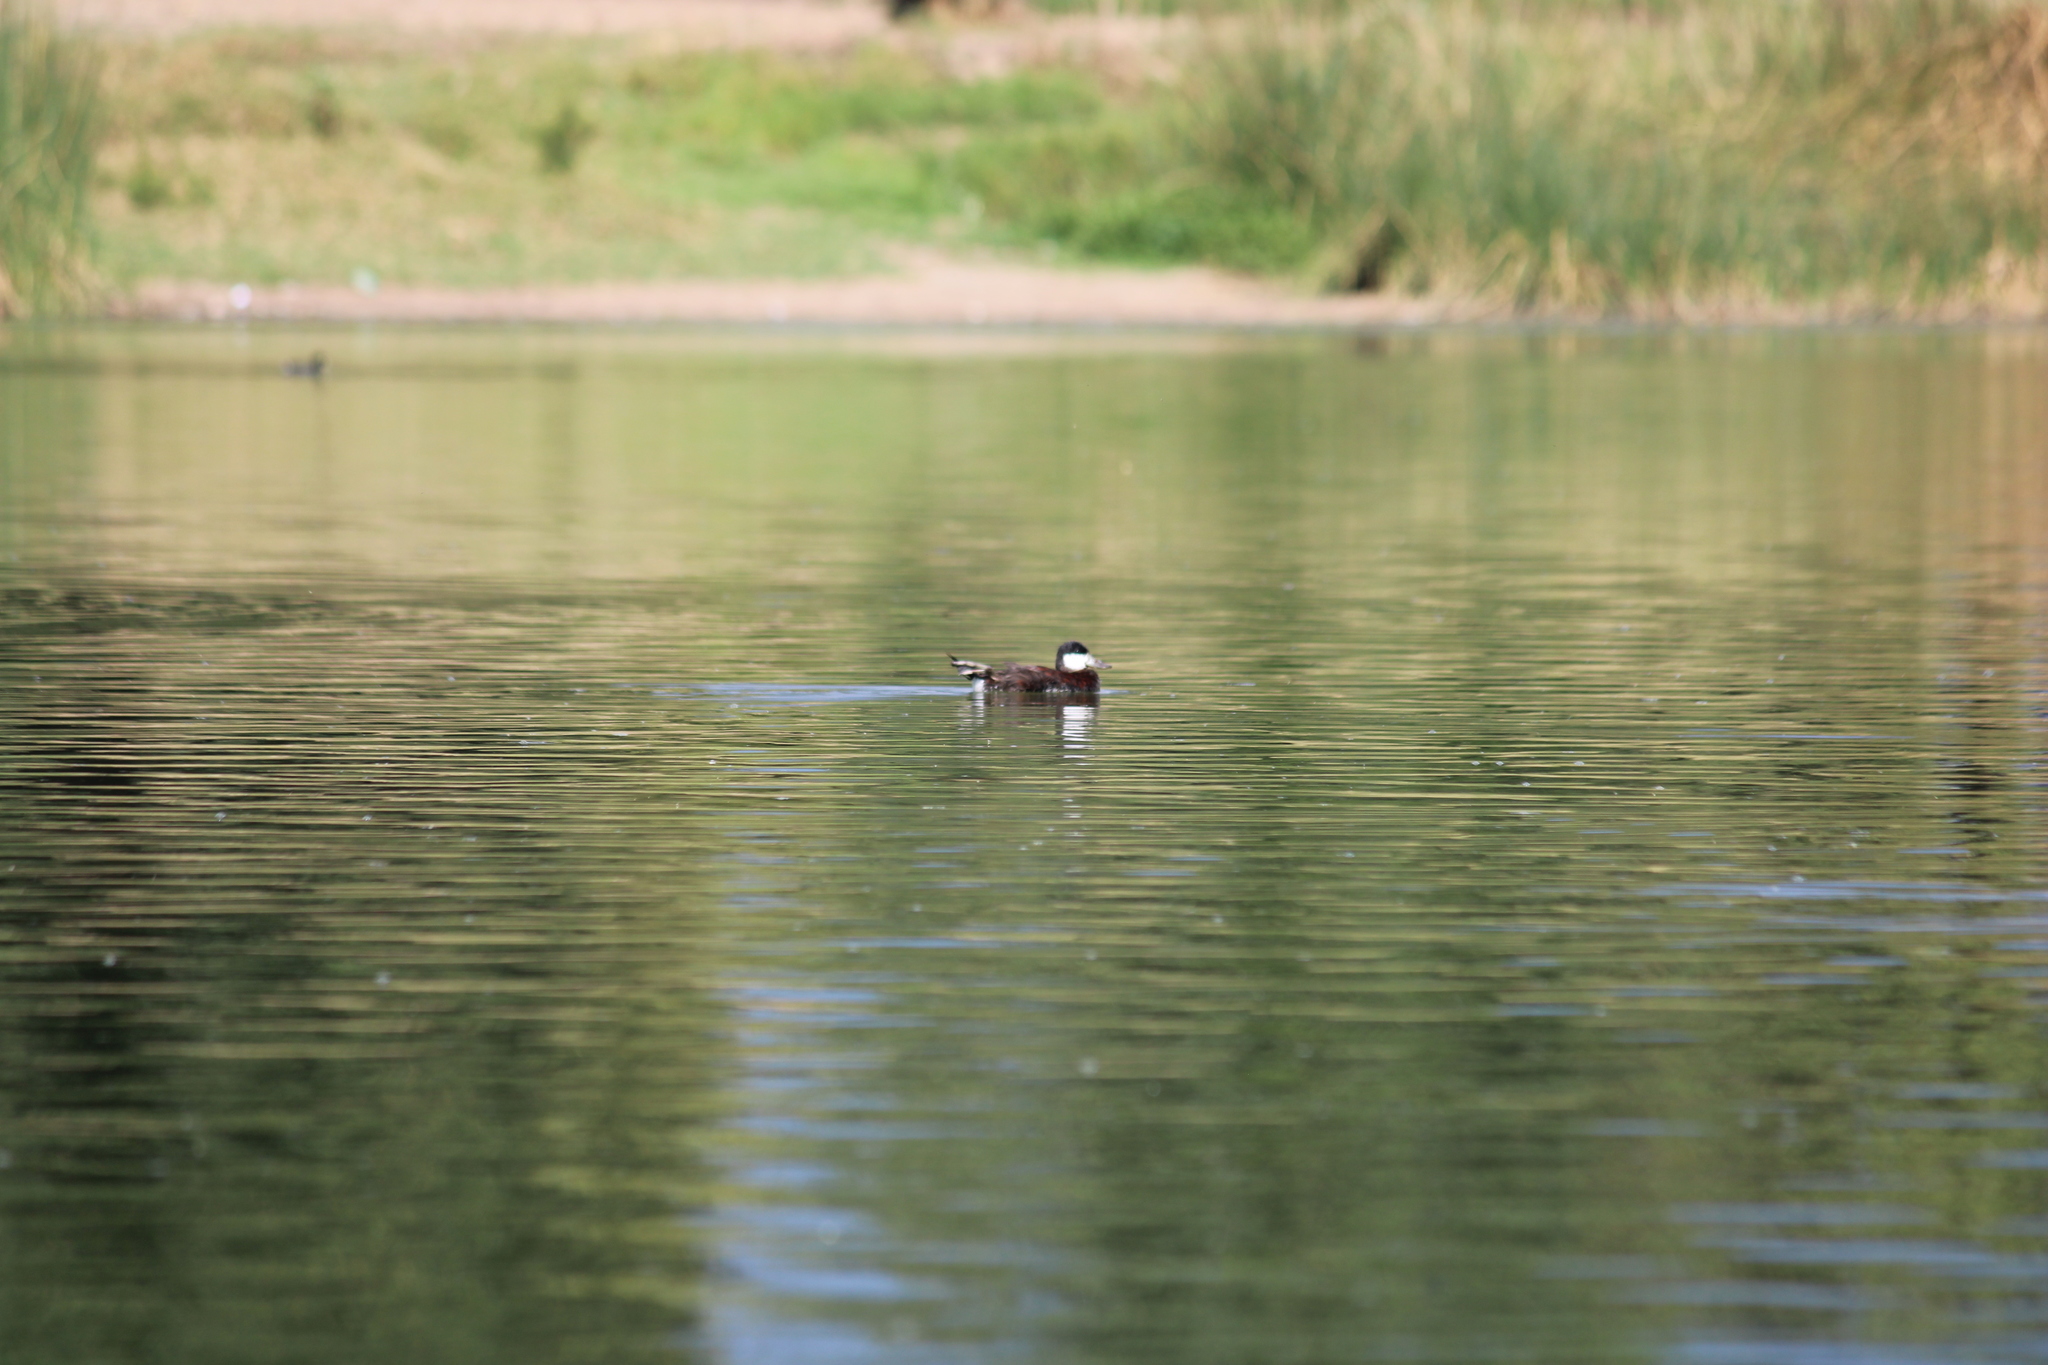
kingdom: Animalia
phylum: Chordata
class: Aves
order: Anseriformes
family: Anatidae
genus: Oxyura
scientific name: Oxyura jamaicensis
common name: Ruddy duck
